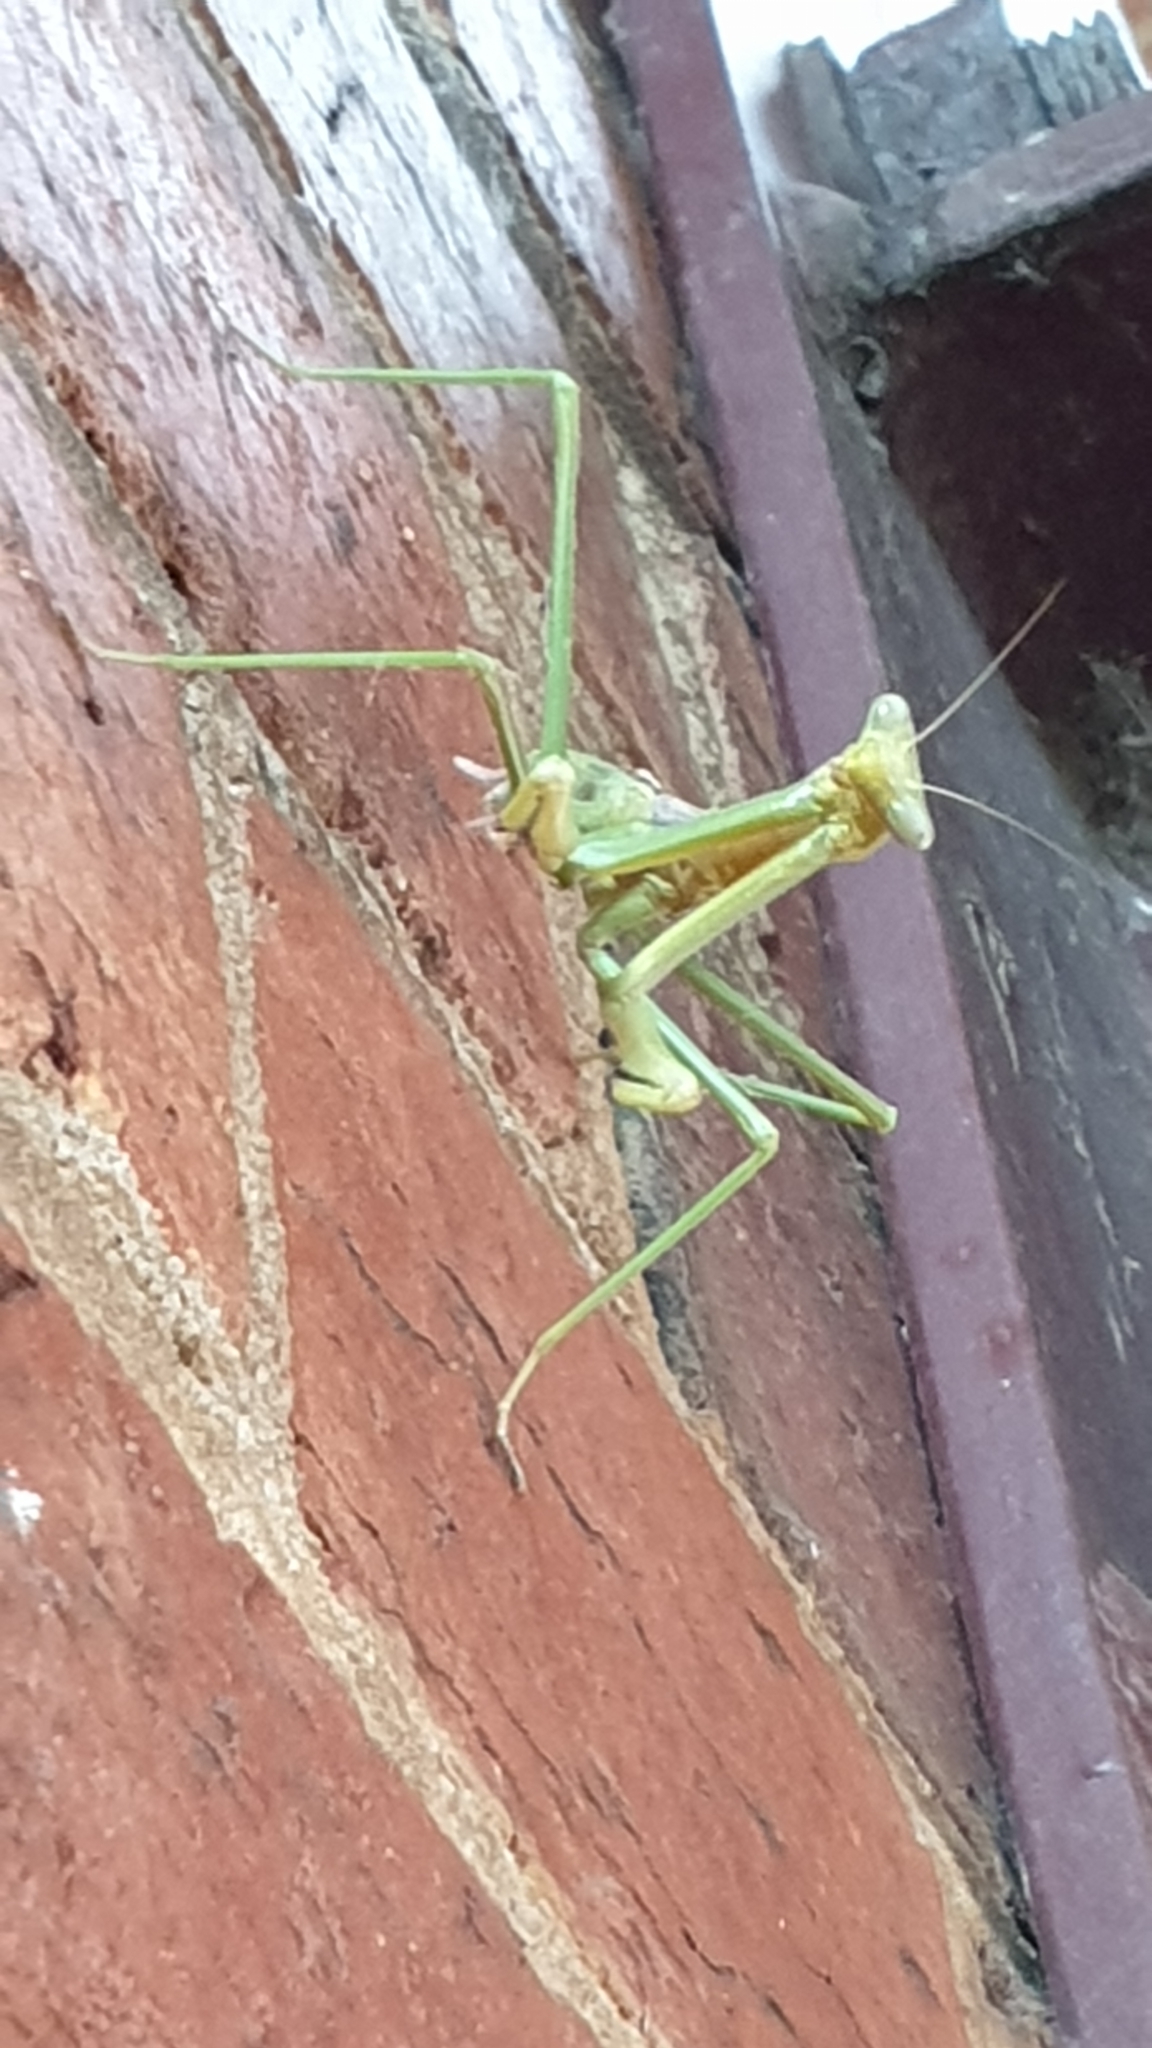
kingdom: Animalia
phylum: Arthropoda
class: Insecta
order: Mantodea
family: Mantidae
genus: Archimantis
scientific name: Archimantis sobrina
